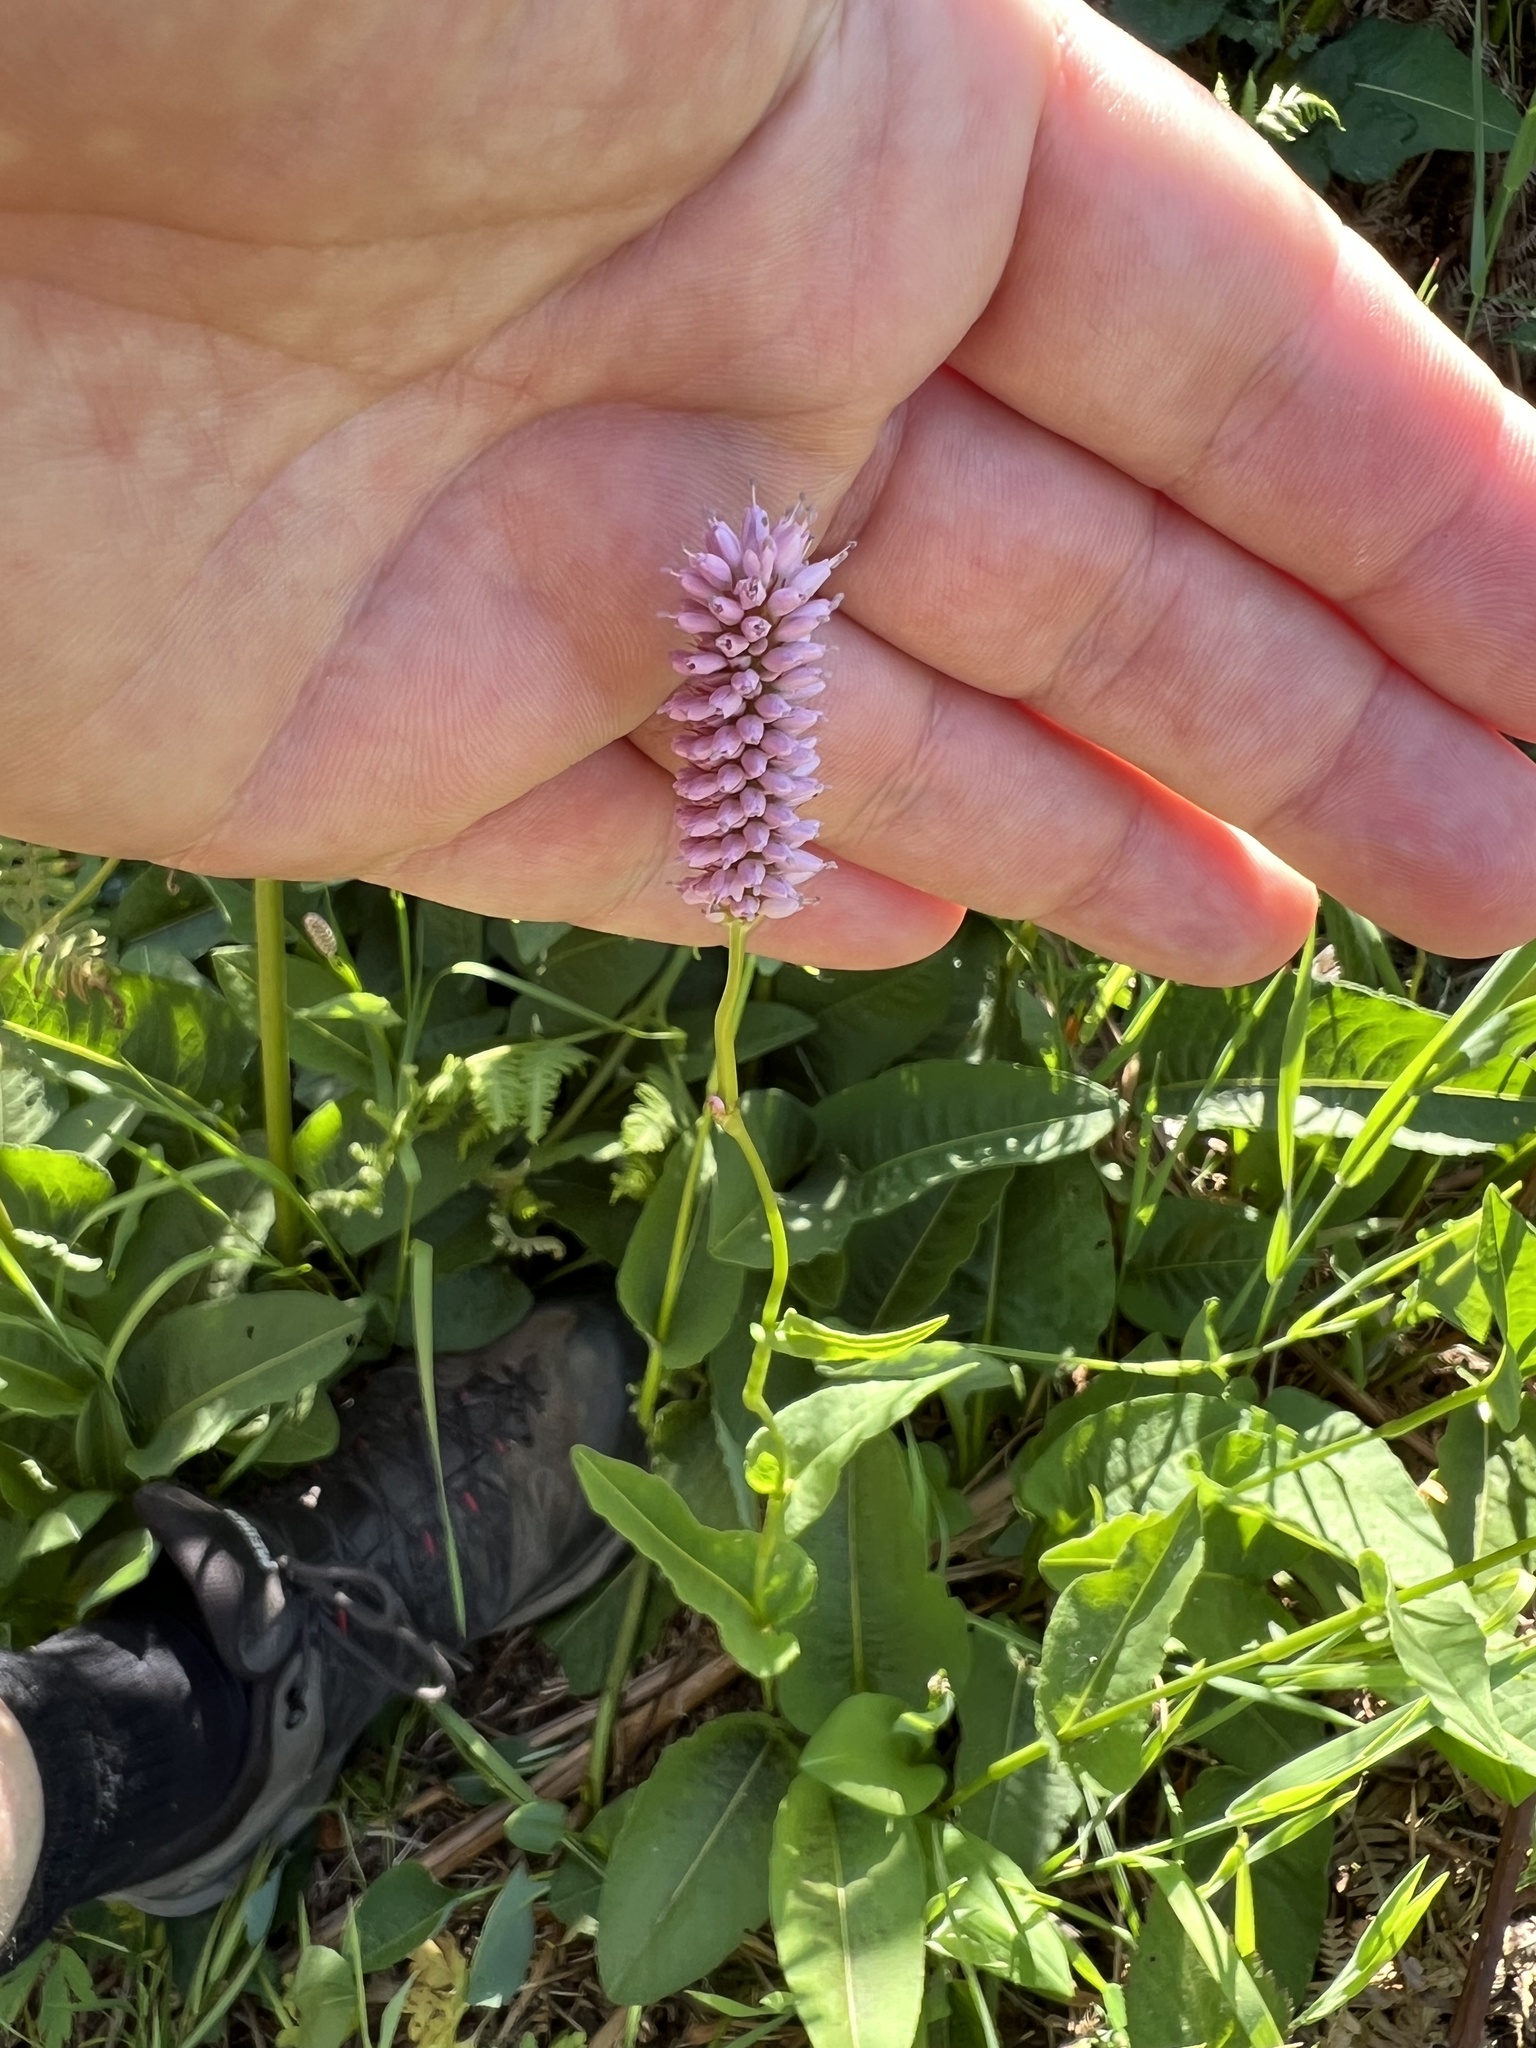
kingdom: Plantae
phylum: Tracheophyta
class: Magnoliopsida
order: Caryophyllales
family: Polygonaceae
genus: Bistorta
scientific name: Bistorta officinalis
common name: Common bistort
